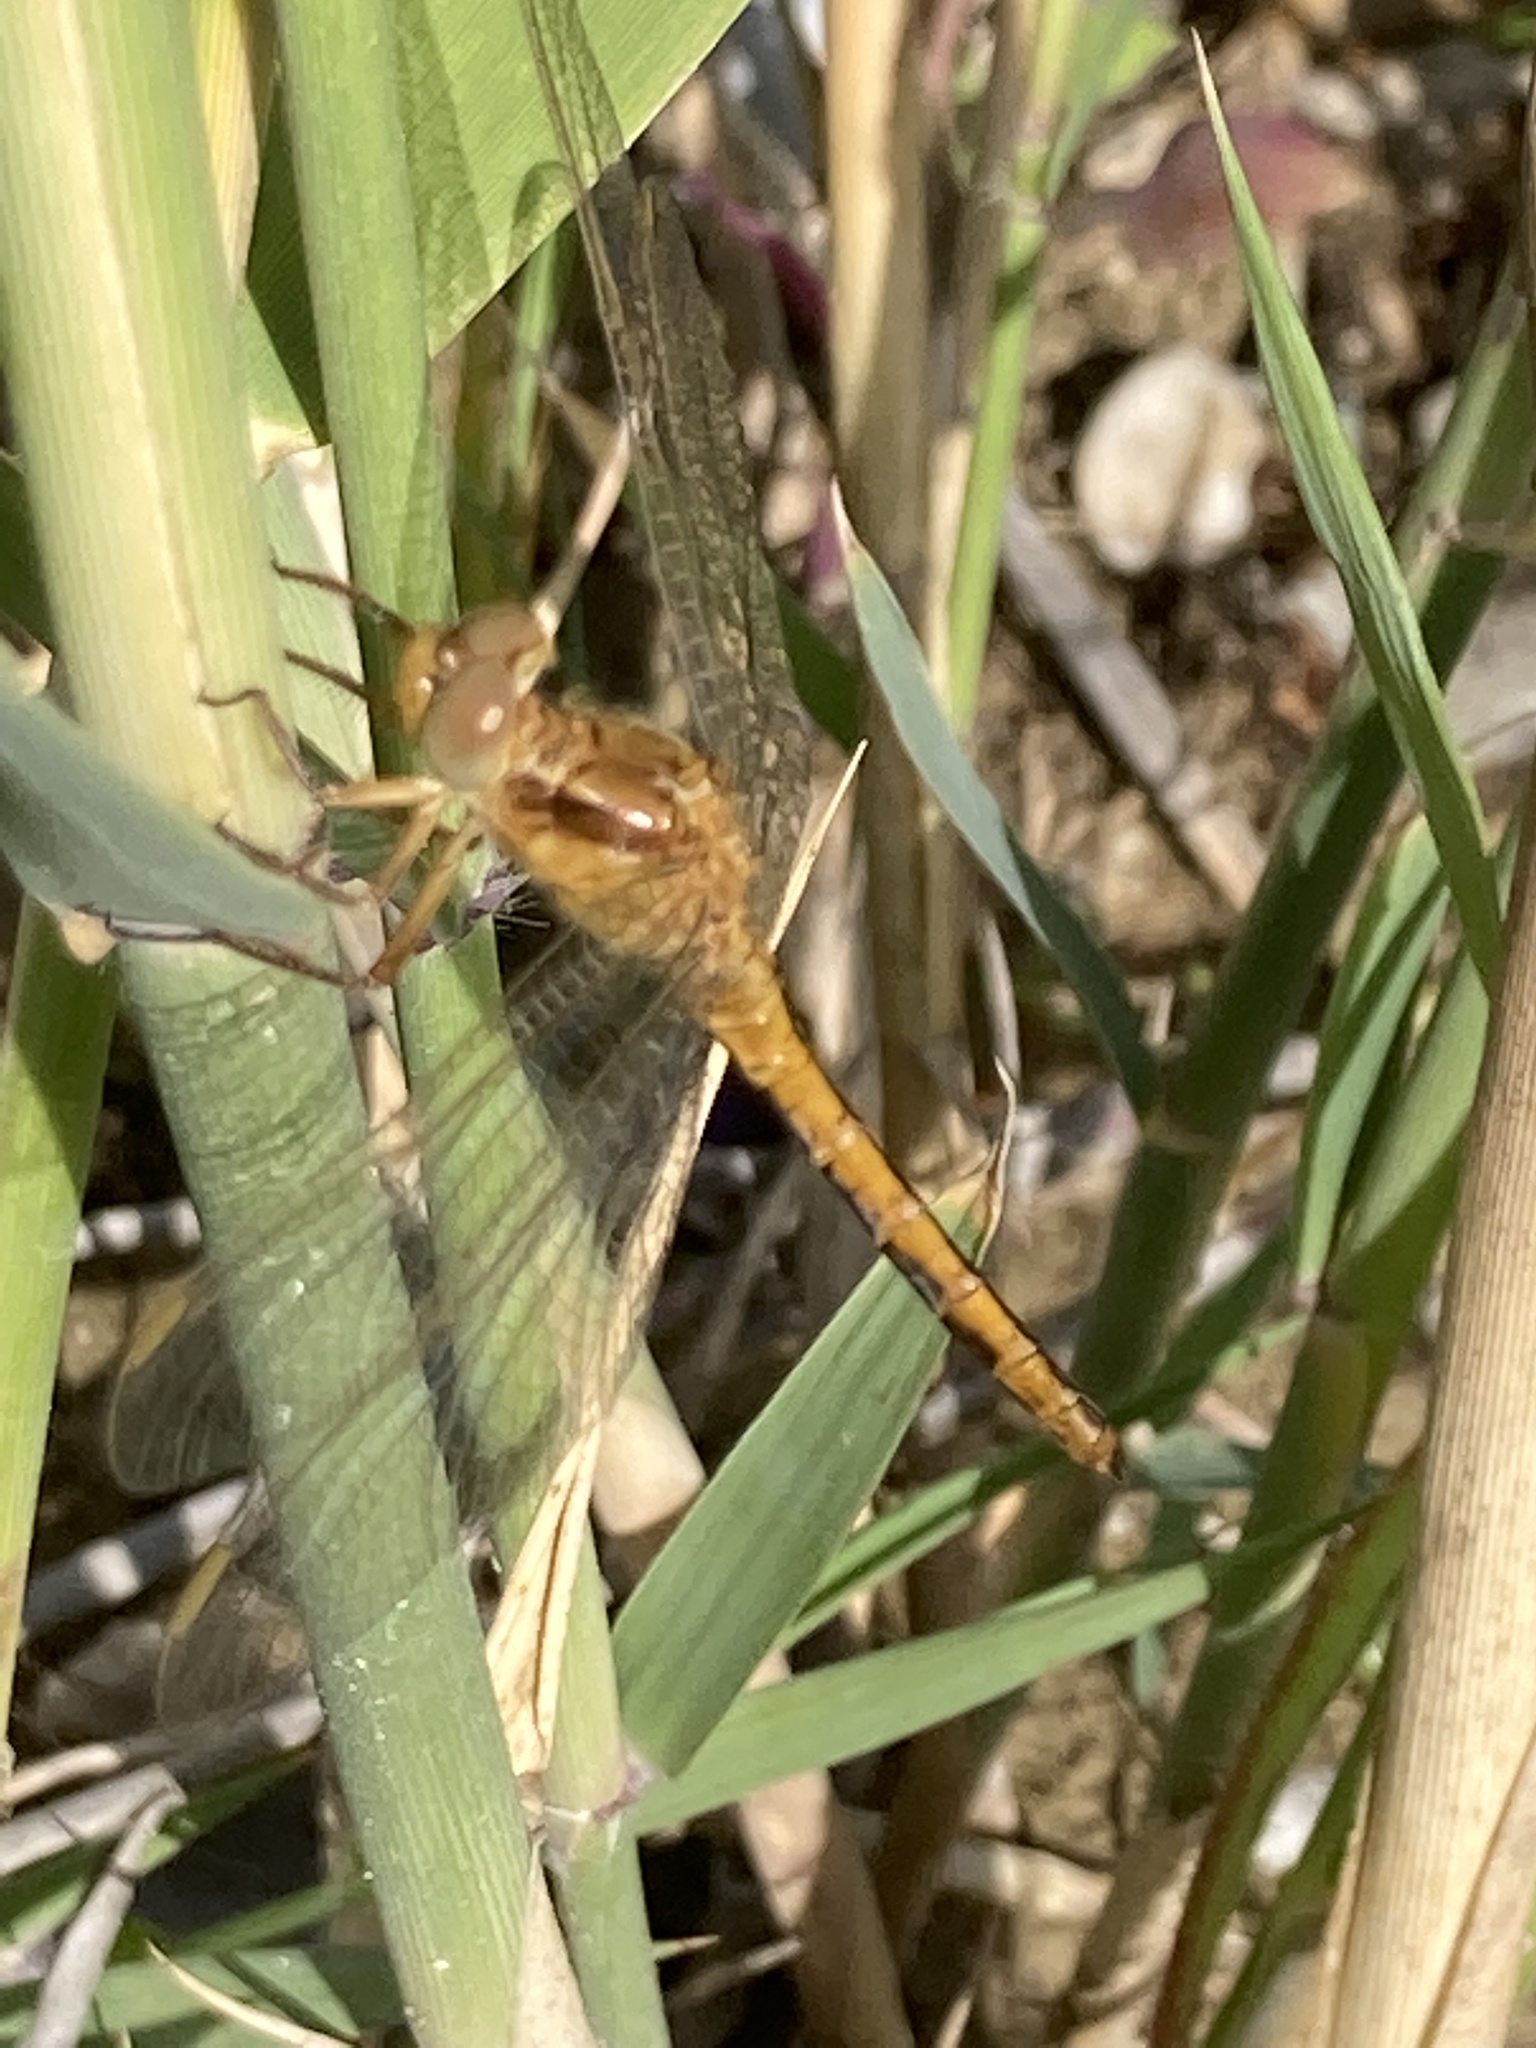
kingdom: Animalia
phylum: Arthropoda
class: Insecta
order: Odonata
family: Libellulidae
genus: Orthetrum
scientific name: Orthetrum coerulescens
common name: Keeled skimmer
